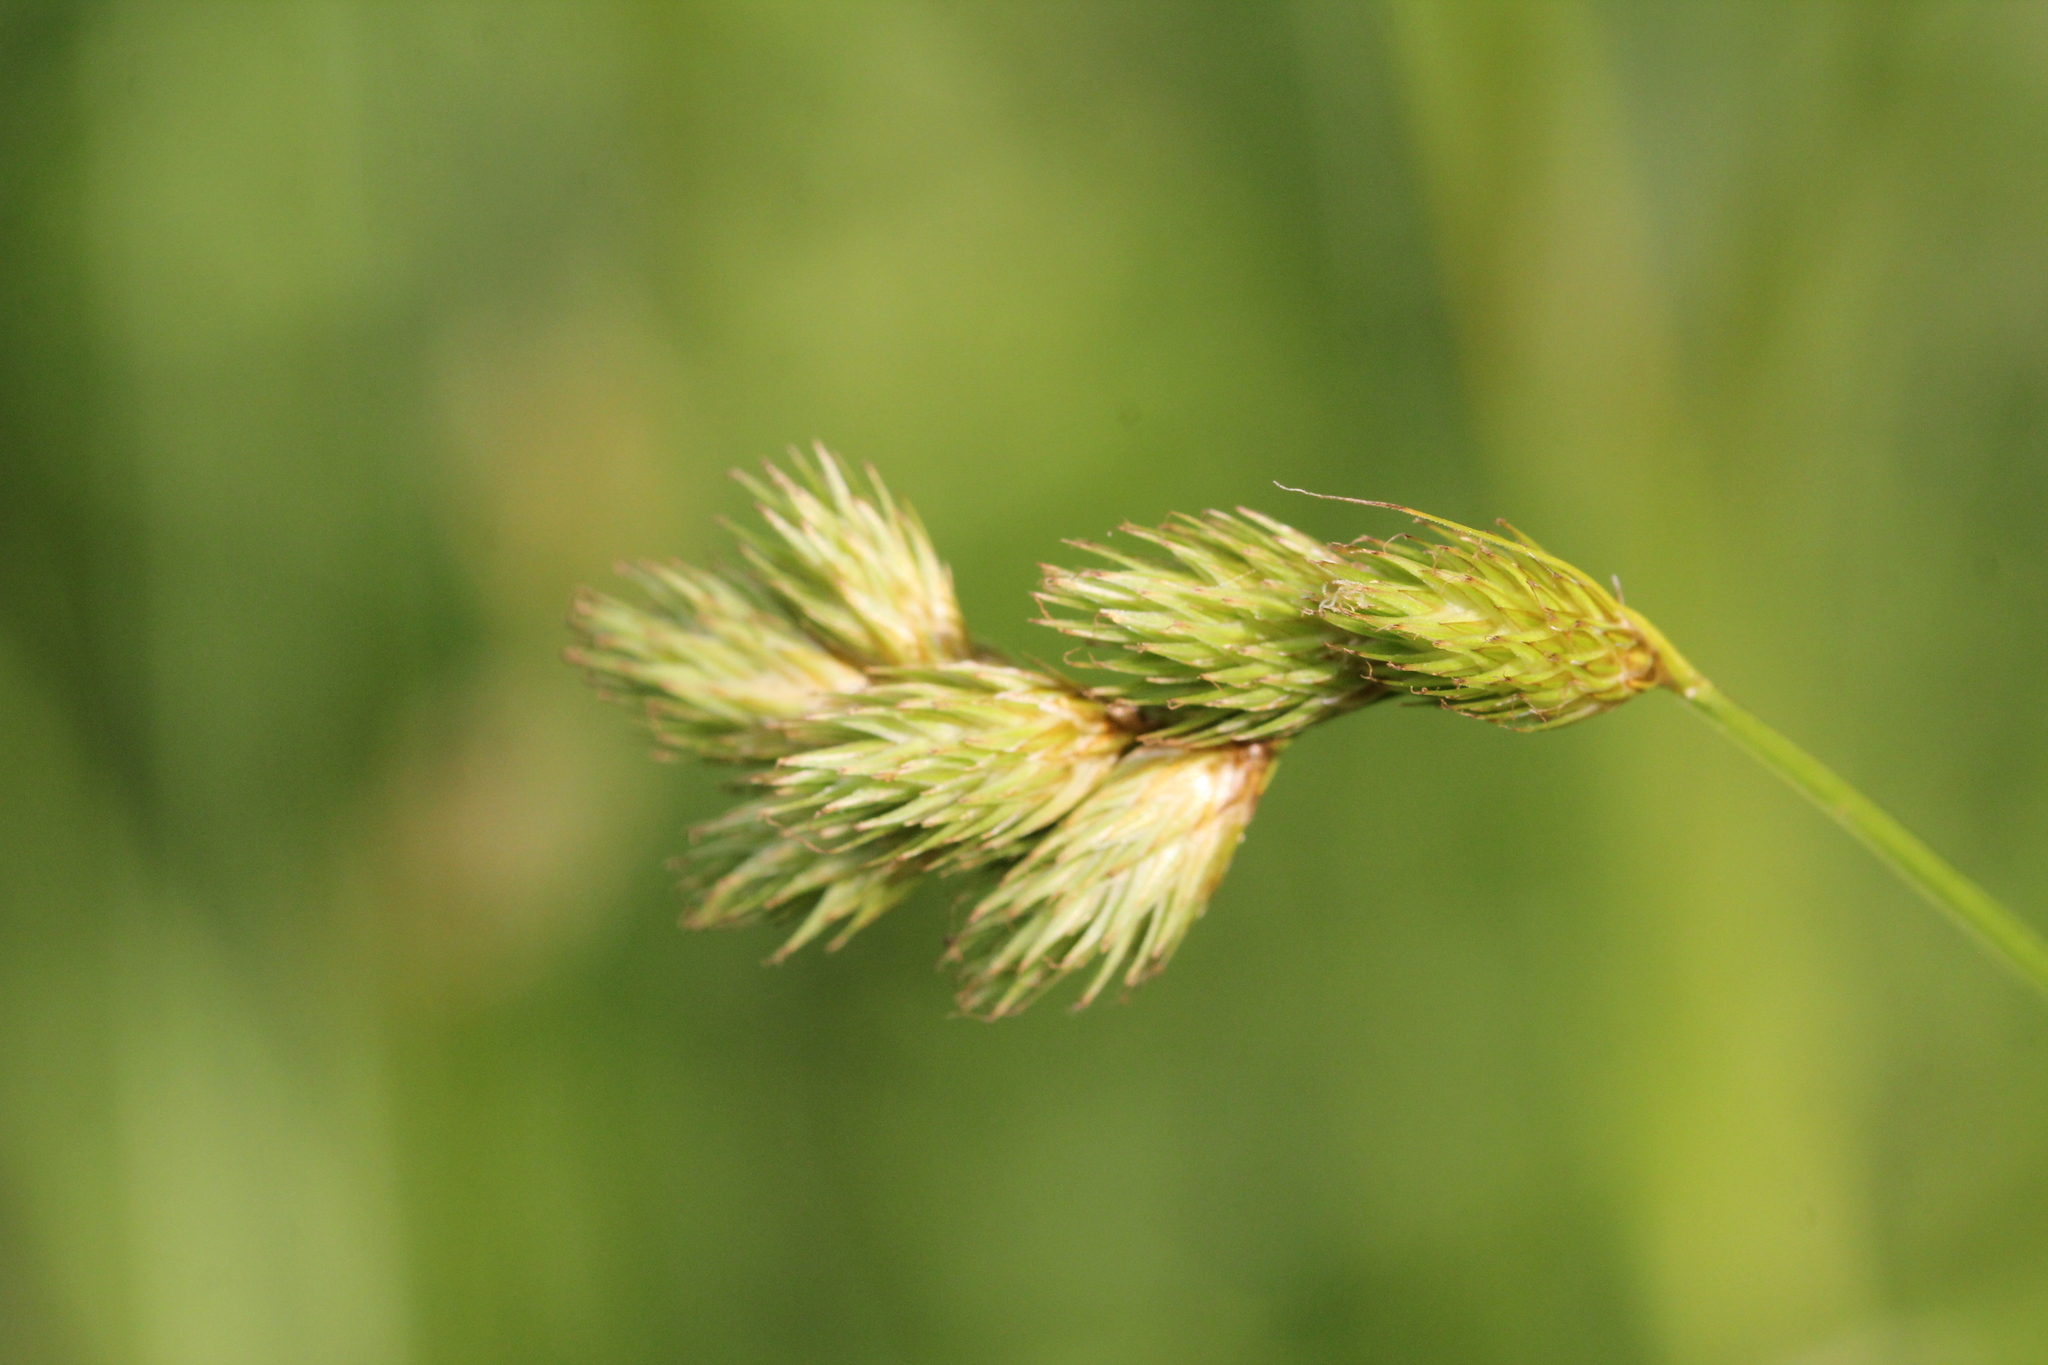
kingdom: Plantae
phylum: Tracheophyta
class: Liliopsida
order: Poales
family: Cyperaceae
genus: Carex
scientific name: Carex scoparia
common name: Broom sedge
